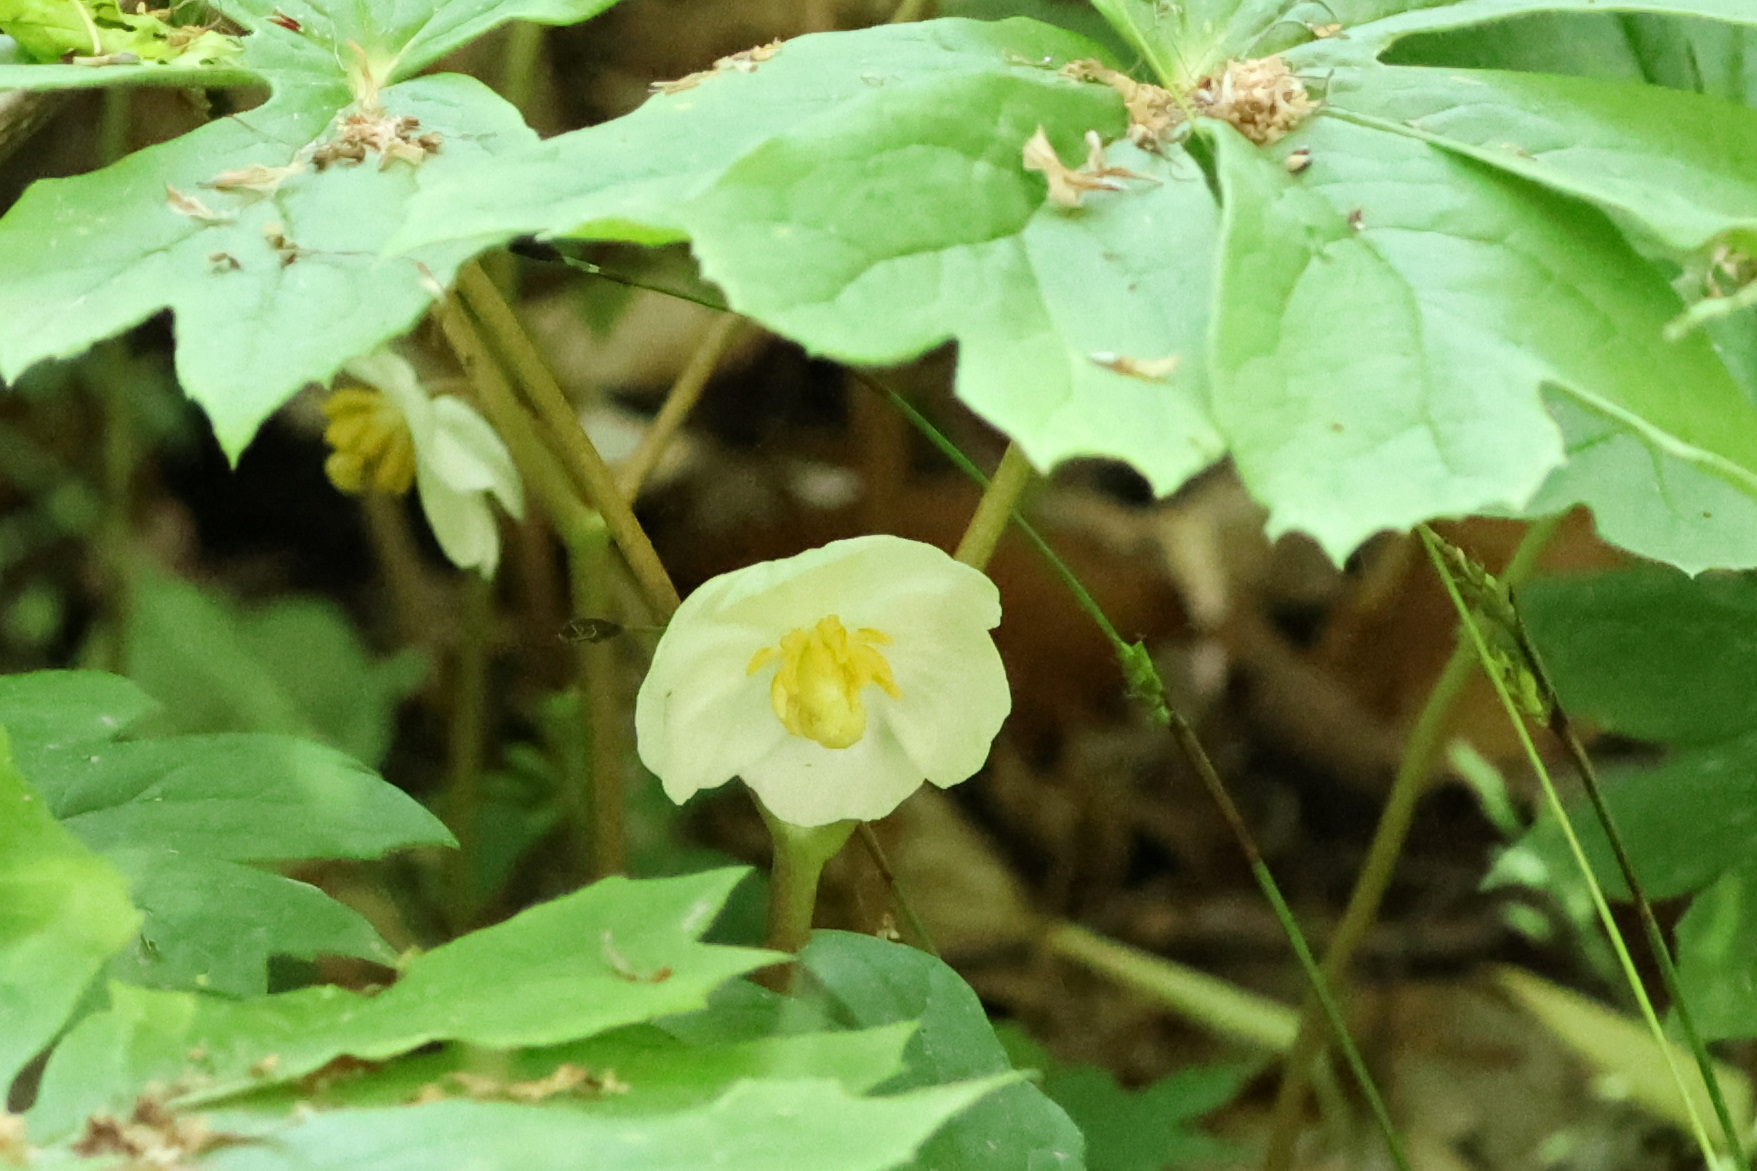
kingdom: Plantae
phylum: Tracheophyta
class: Magnoliopsida
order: Ranunculales
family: Berberidaceae
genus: Podophyllum
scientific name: Podophyllum peltatum
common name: Wild mandrake
